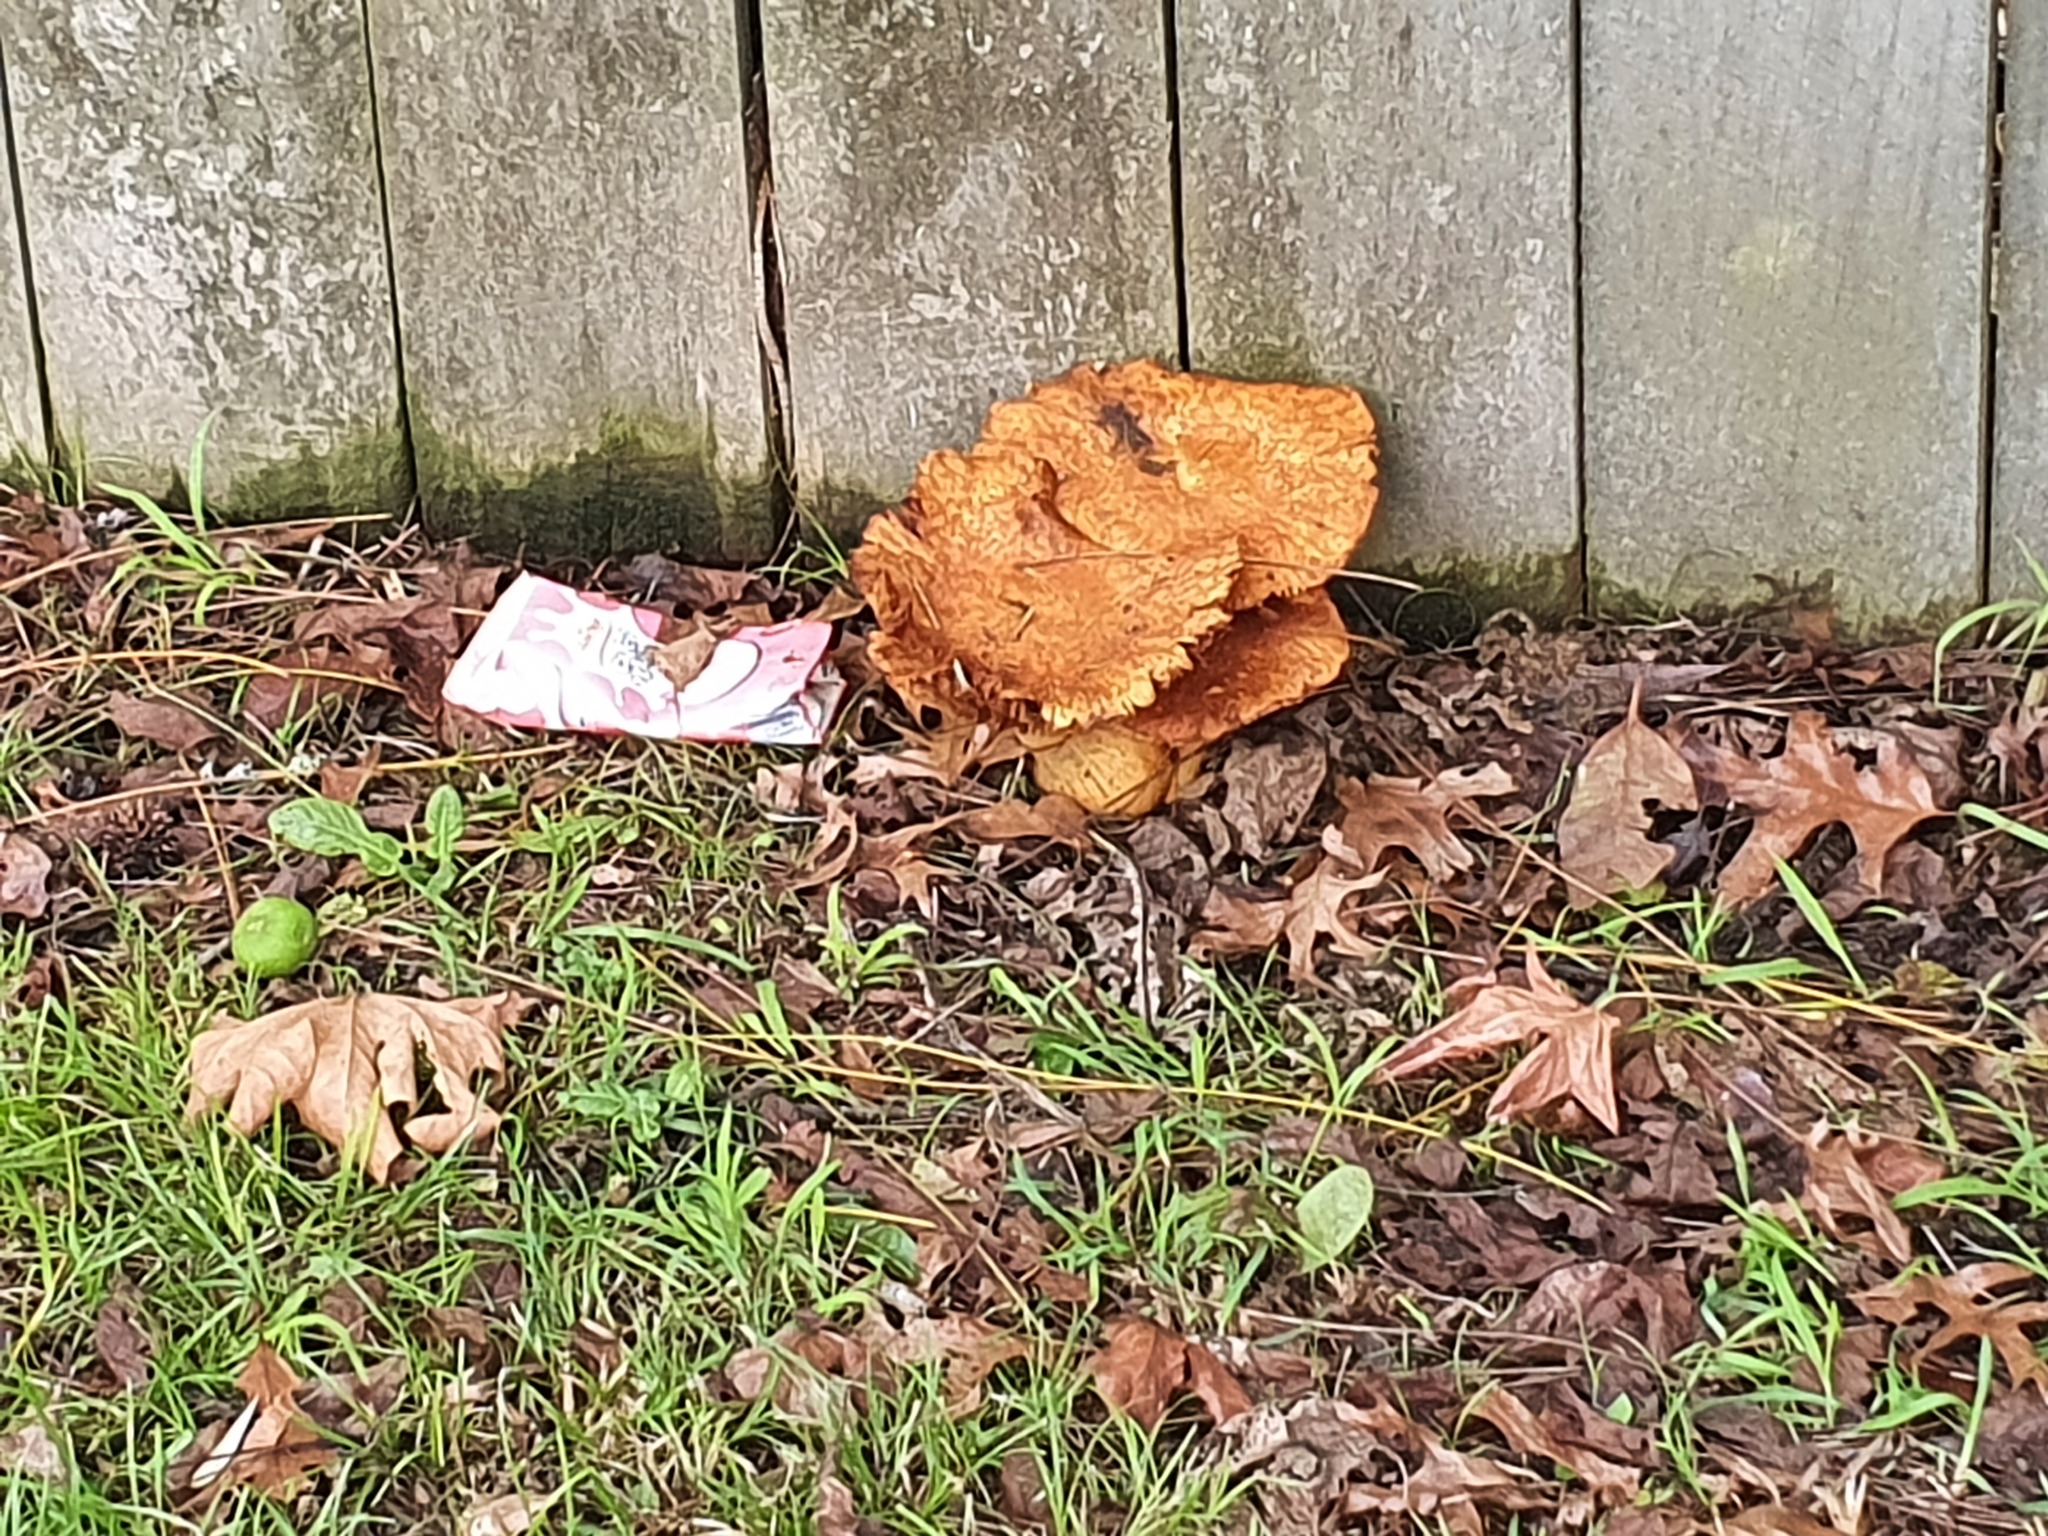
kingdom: Fungi
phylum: Basidiomycota
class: Agaricomycetes
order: Agaricales
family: Hymenogastraceae
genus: Gymnopilus
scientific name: Gymnopilus junonius
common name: Spectacular rustgill
